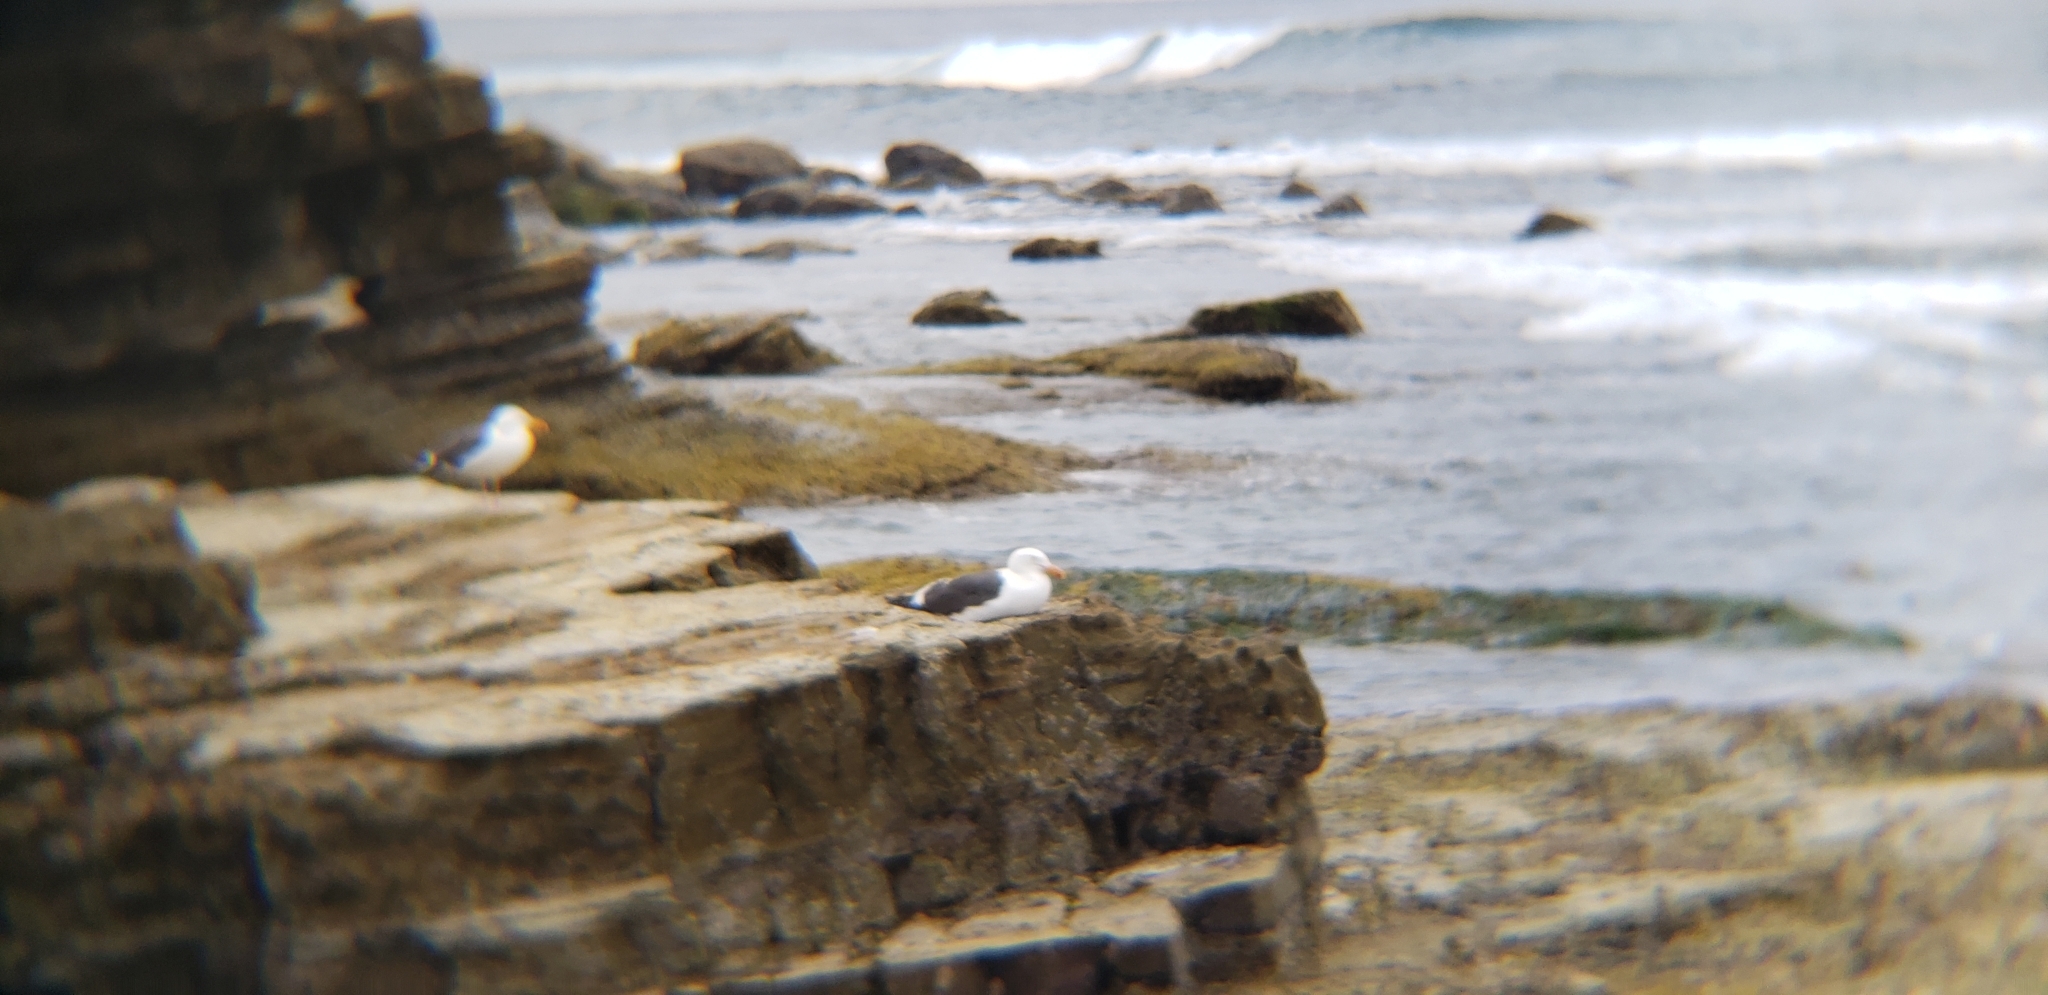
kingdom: Animalia
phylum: Chordata
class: Aves
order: Charadriiformes
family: Laridae
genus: Larus
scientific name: Larus occidentalis
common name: Western gull
